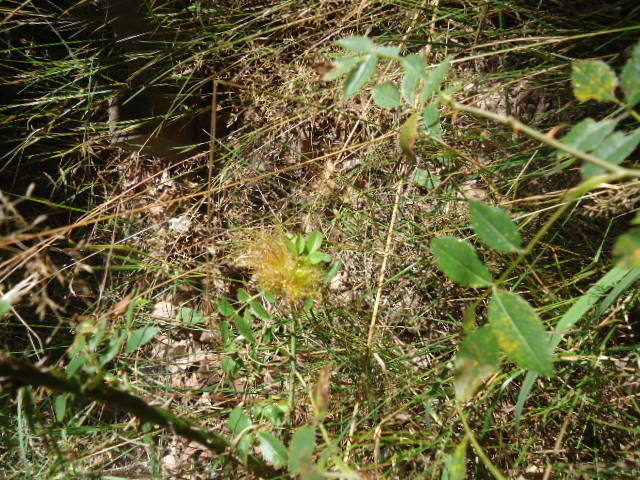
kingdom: Animalia
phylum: Arthropoda
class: Insecta
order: Hymenoptera
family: Cynipidae
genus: Diplolepis
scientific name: Diplolepis rosae
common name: Bedeguar gall
